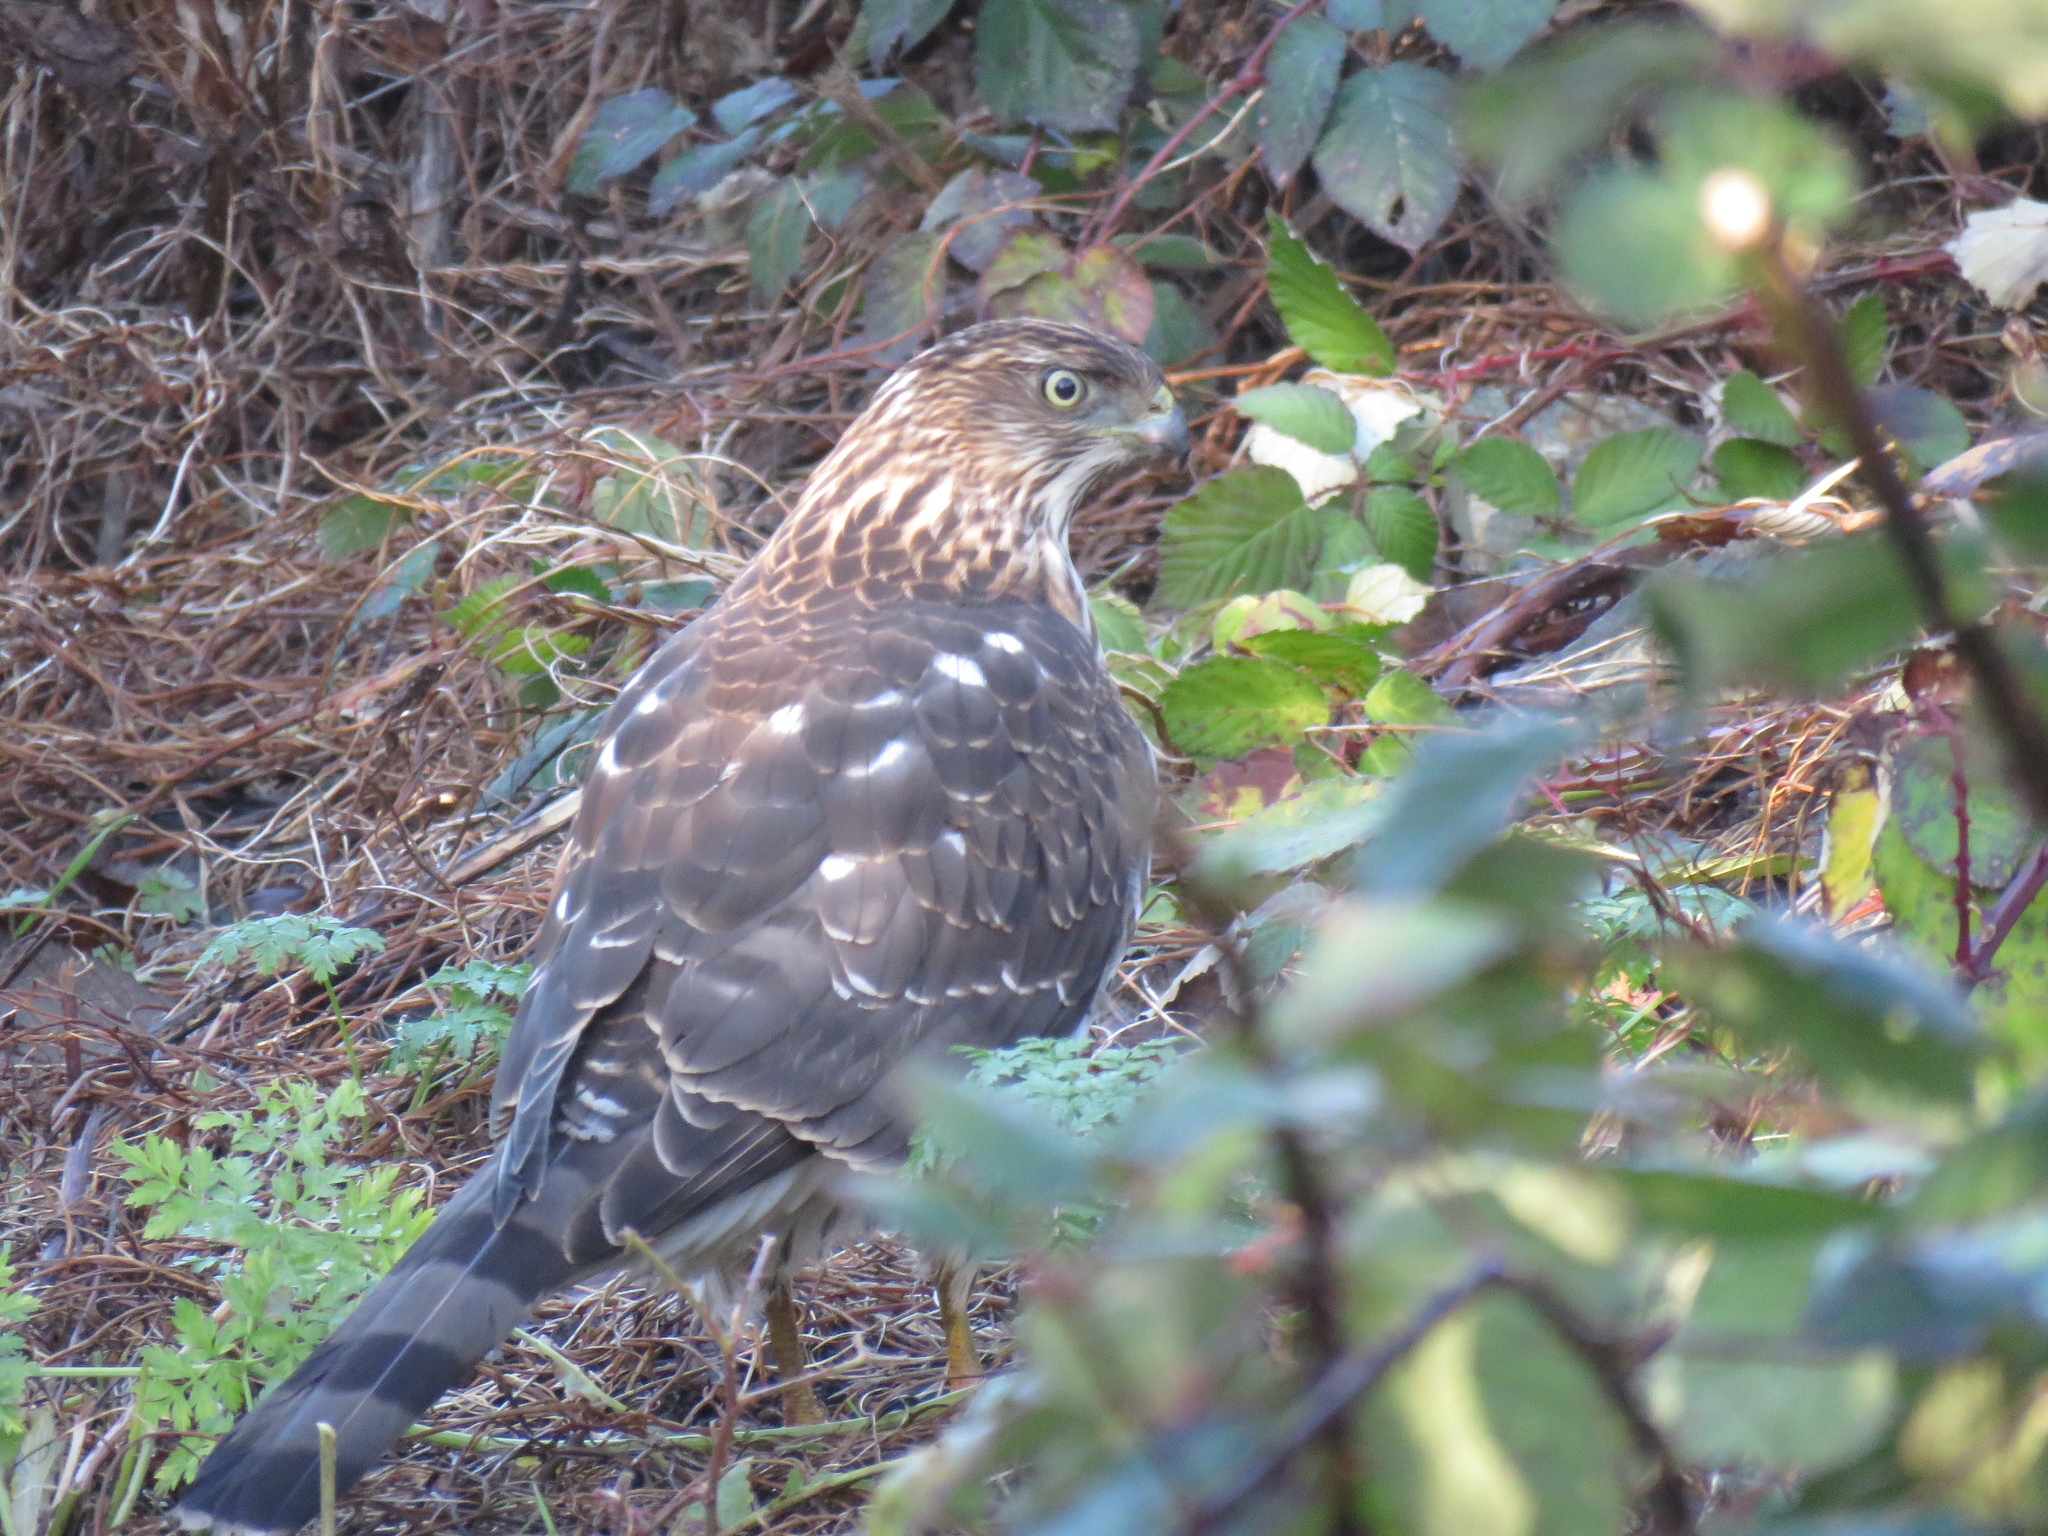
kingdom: Animalia
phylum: Chordata
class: Aves
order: Accipitriformes
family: Accipitridae
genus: Accipiter
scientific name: Accipiter cooperii
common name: Cooper's hawk
